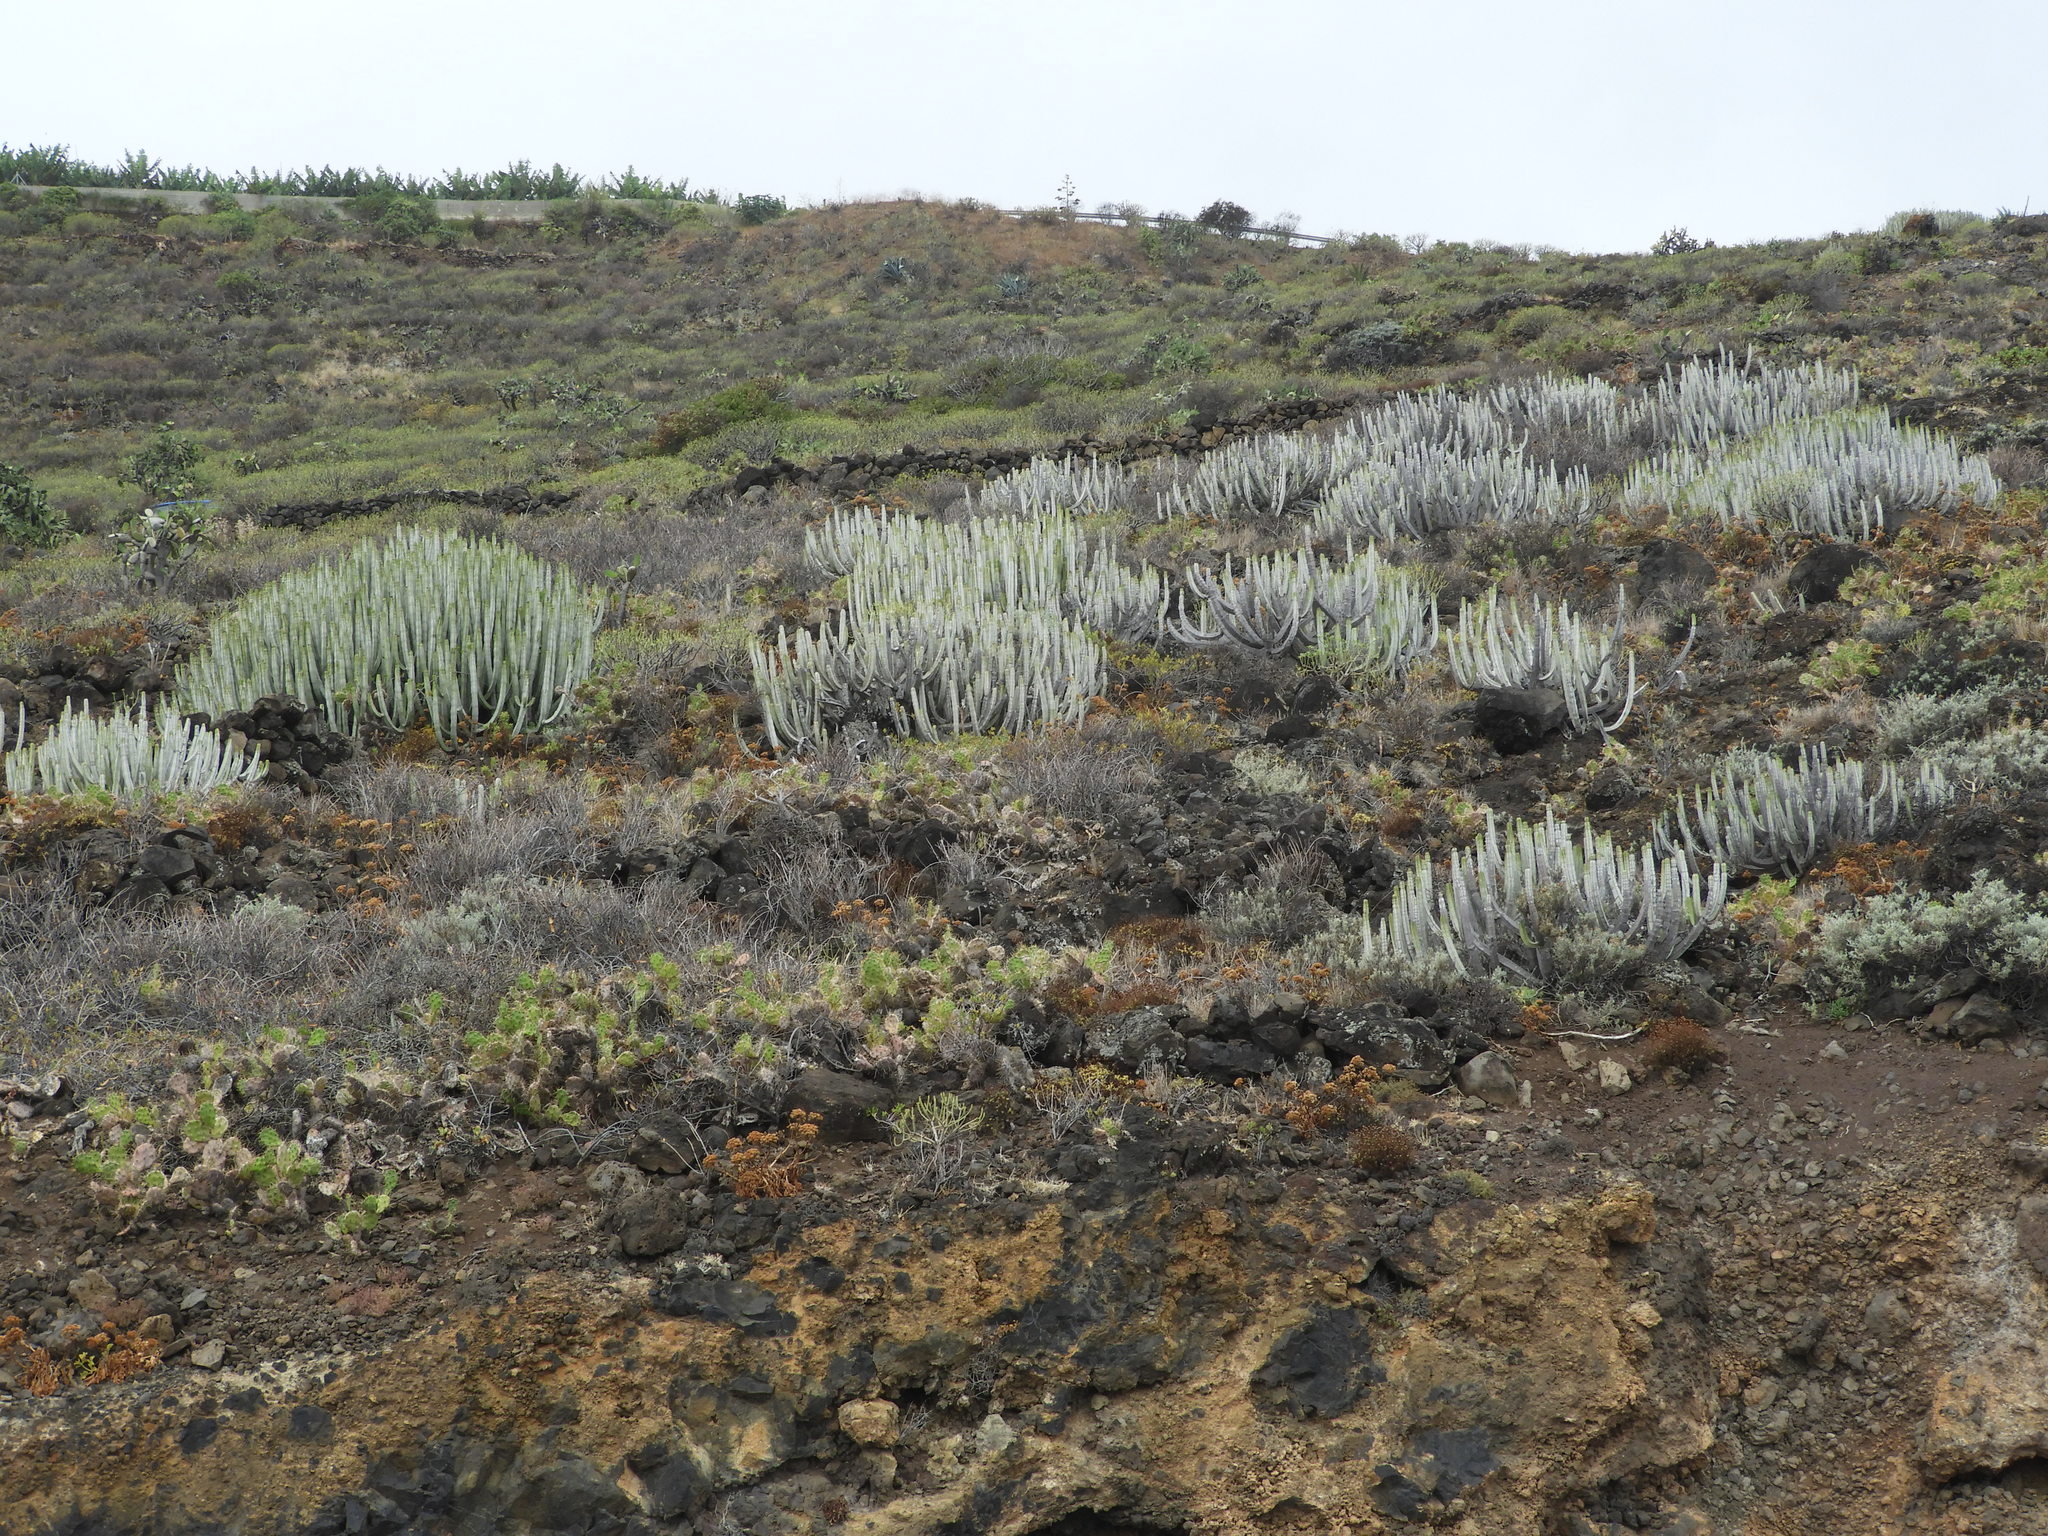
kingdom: Plantae
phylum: Tracheophyta
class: Magnoliopsida
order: Malpighiales
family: Euphorbiaceae
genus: Euphorbia
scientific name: Euphorbia canariensis
